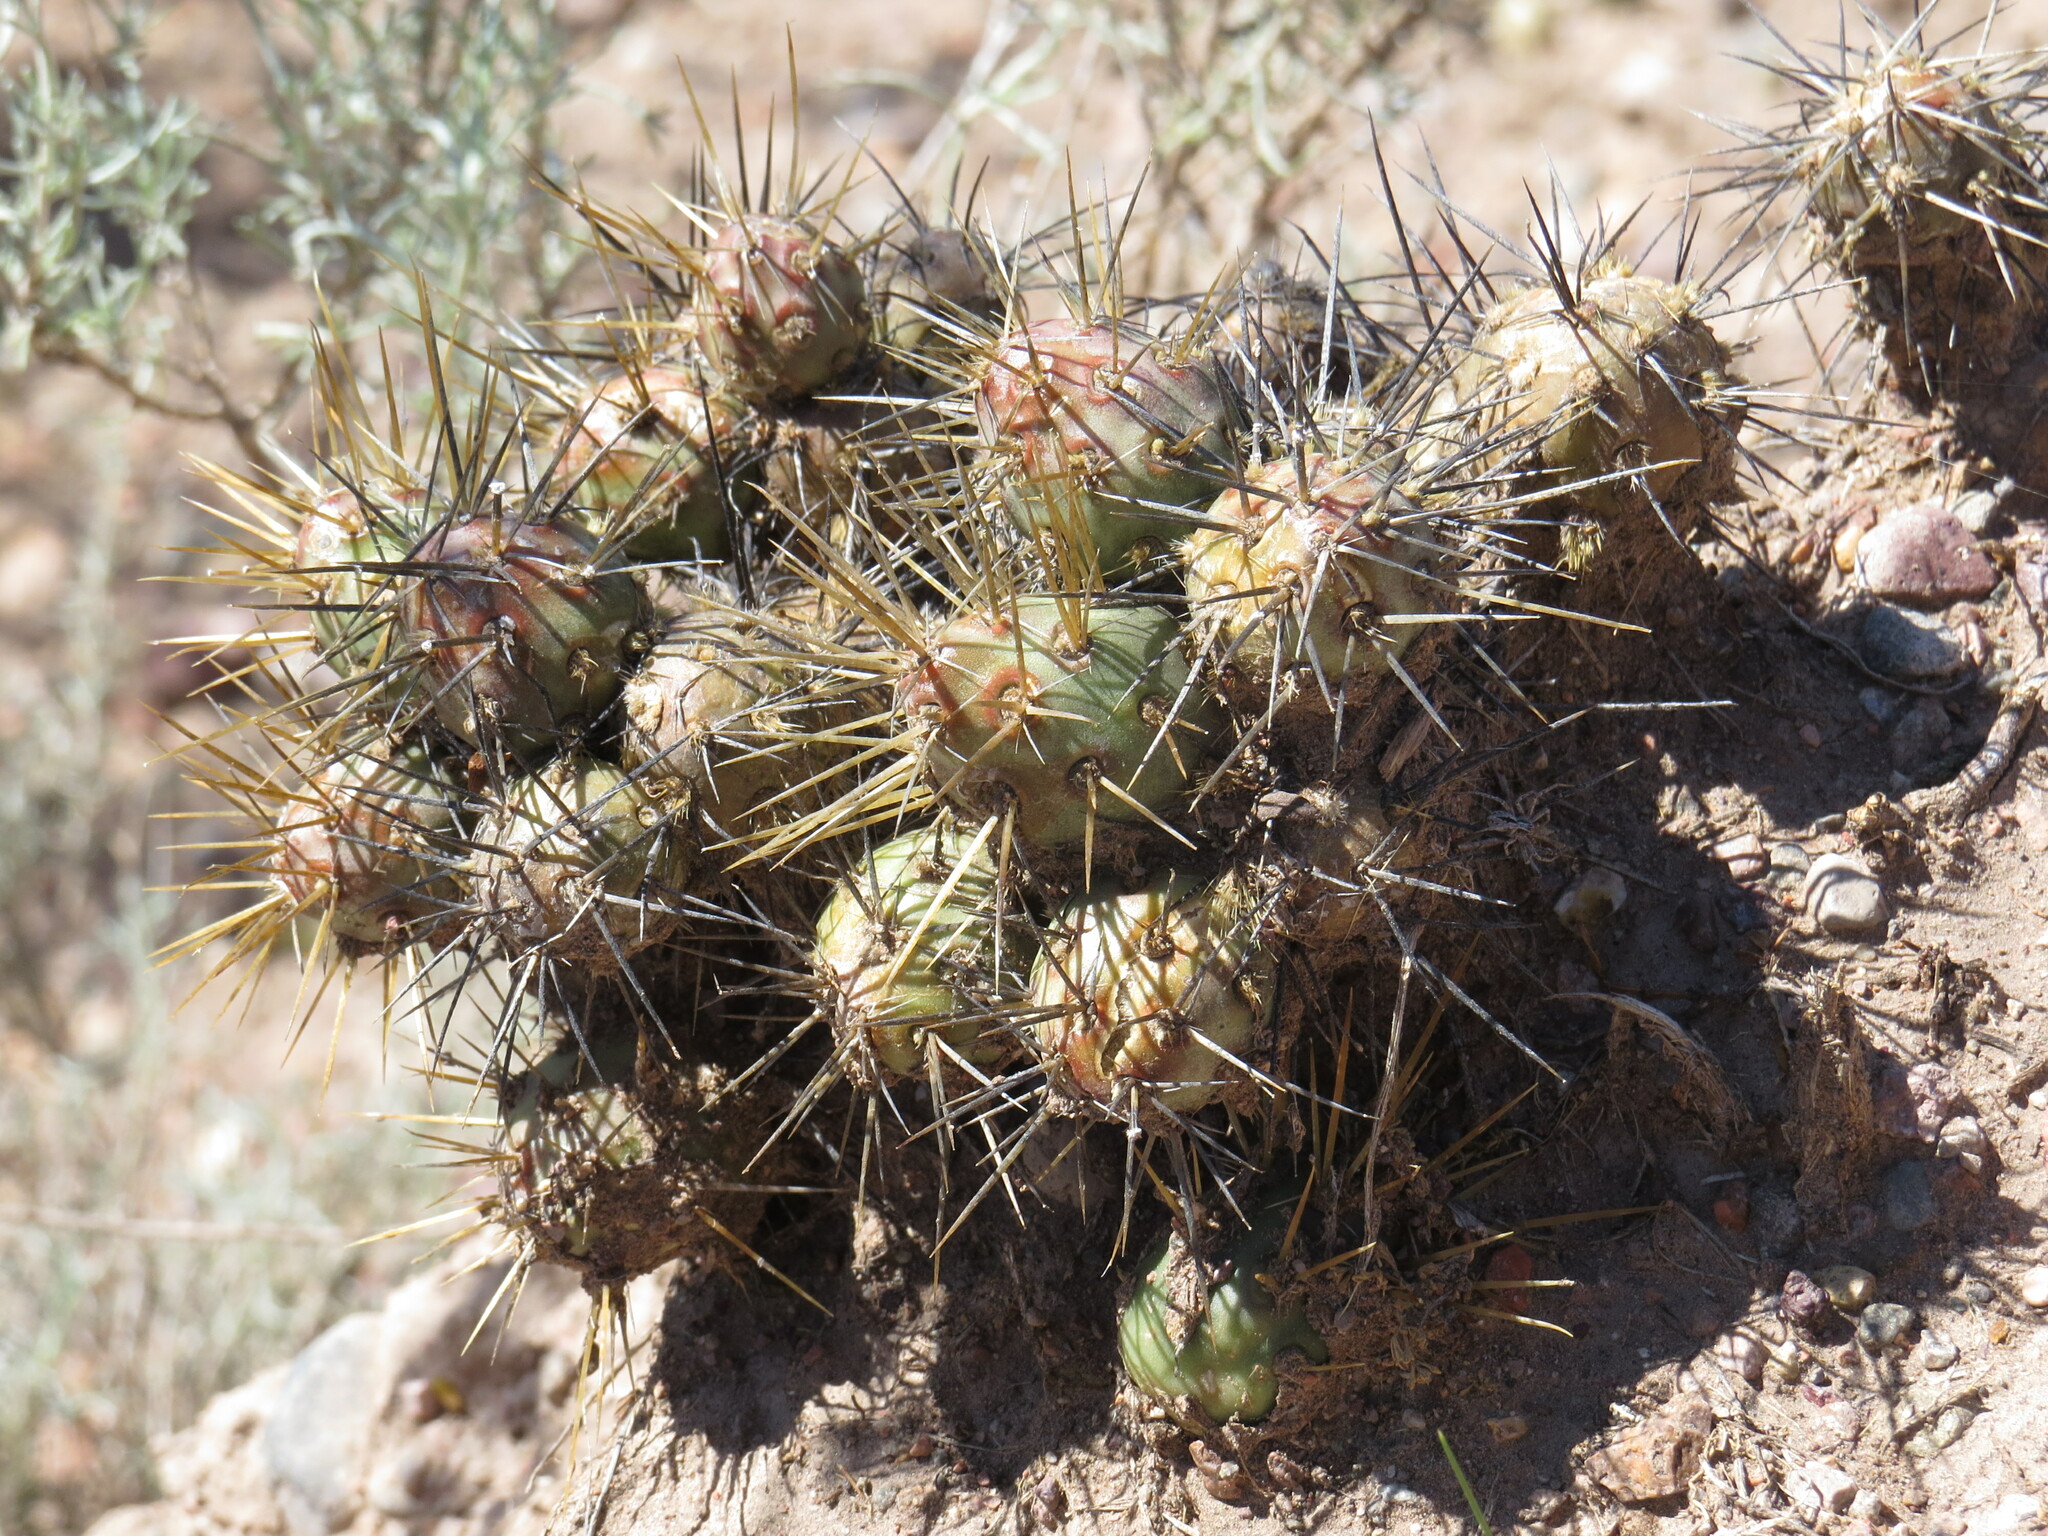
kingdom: Plantae
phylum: Tracheophyta
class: Magnoliopsida
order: Caryophyllales
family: Cactaceae
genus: Maihueniopsis
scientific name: Maihueniopsis ovata
